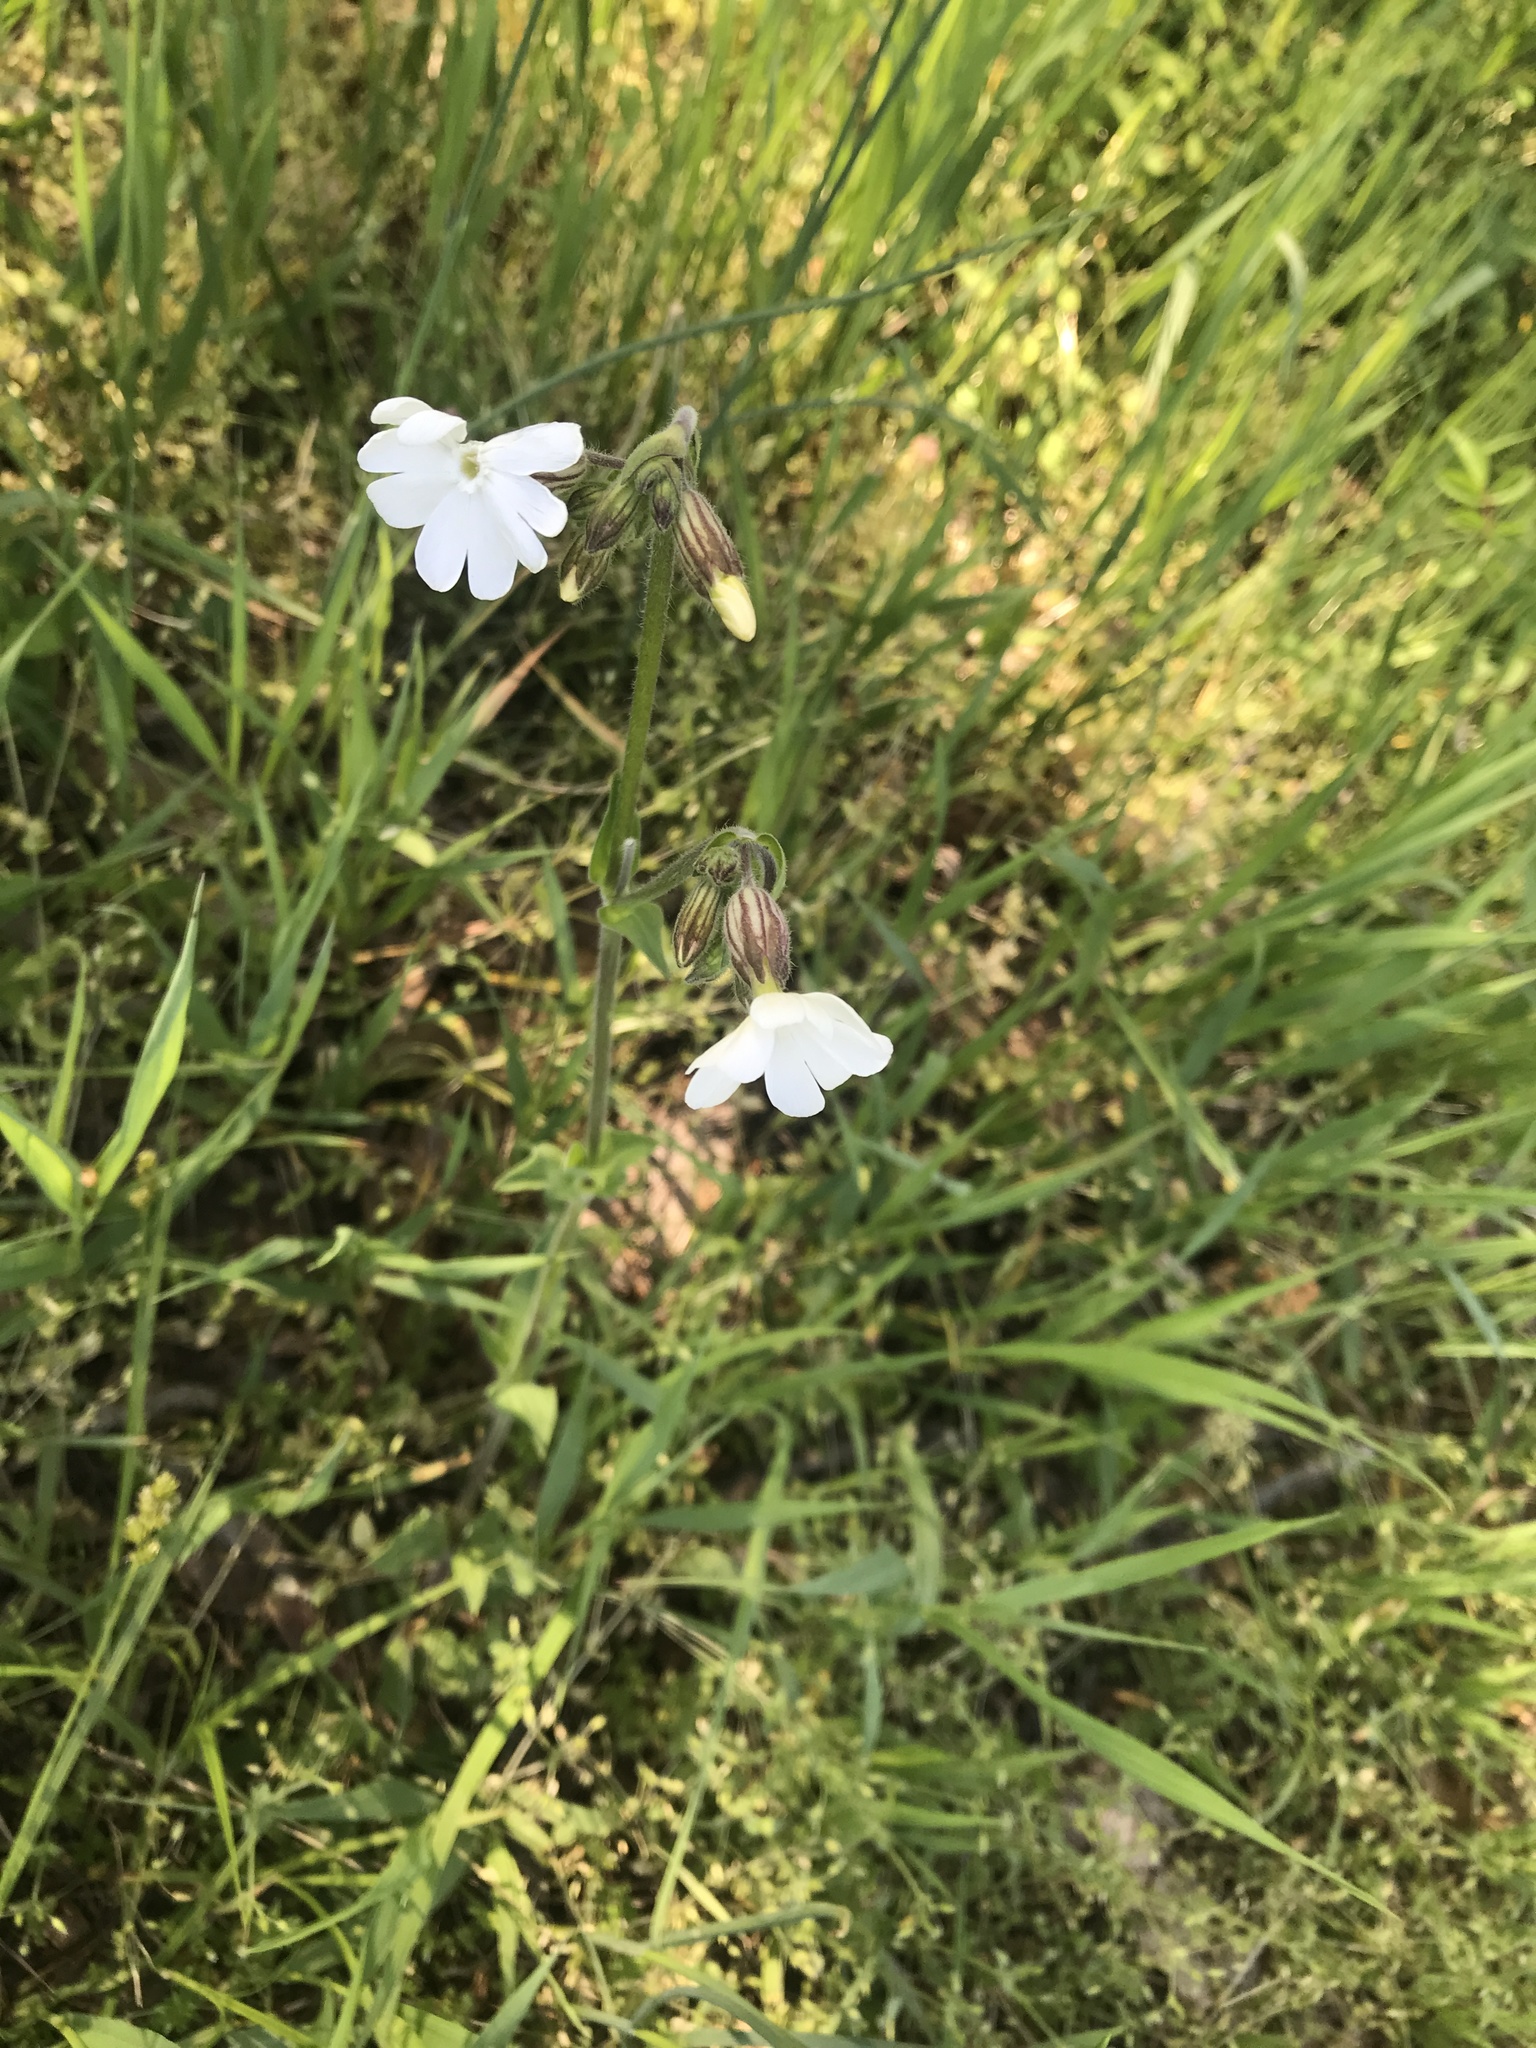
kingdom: Plantae
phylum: Tracheophyta
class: Magnoliopsida
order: Caryophyllales
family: Caryophyllaceae
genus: Silene
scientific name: Silene latifolia
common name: White campion
